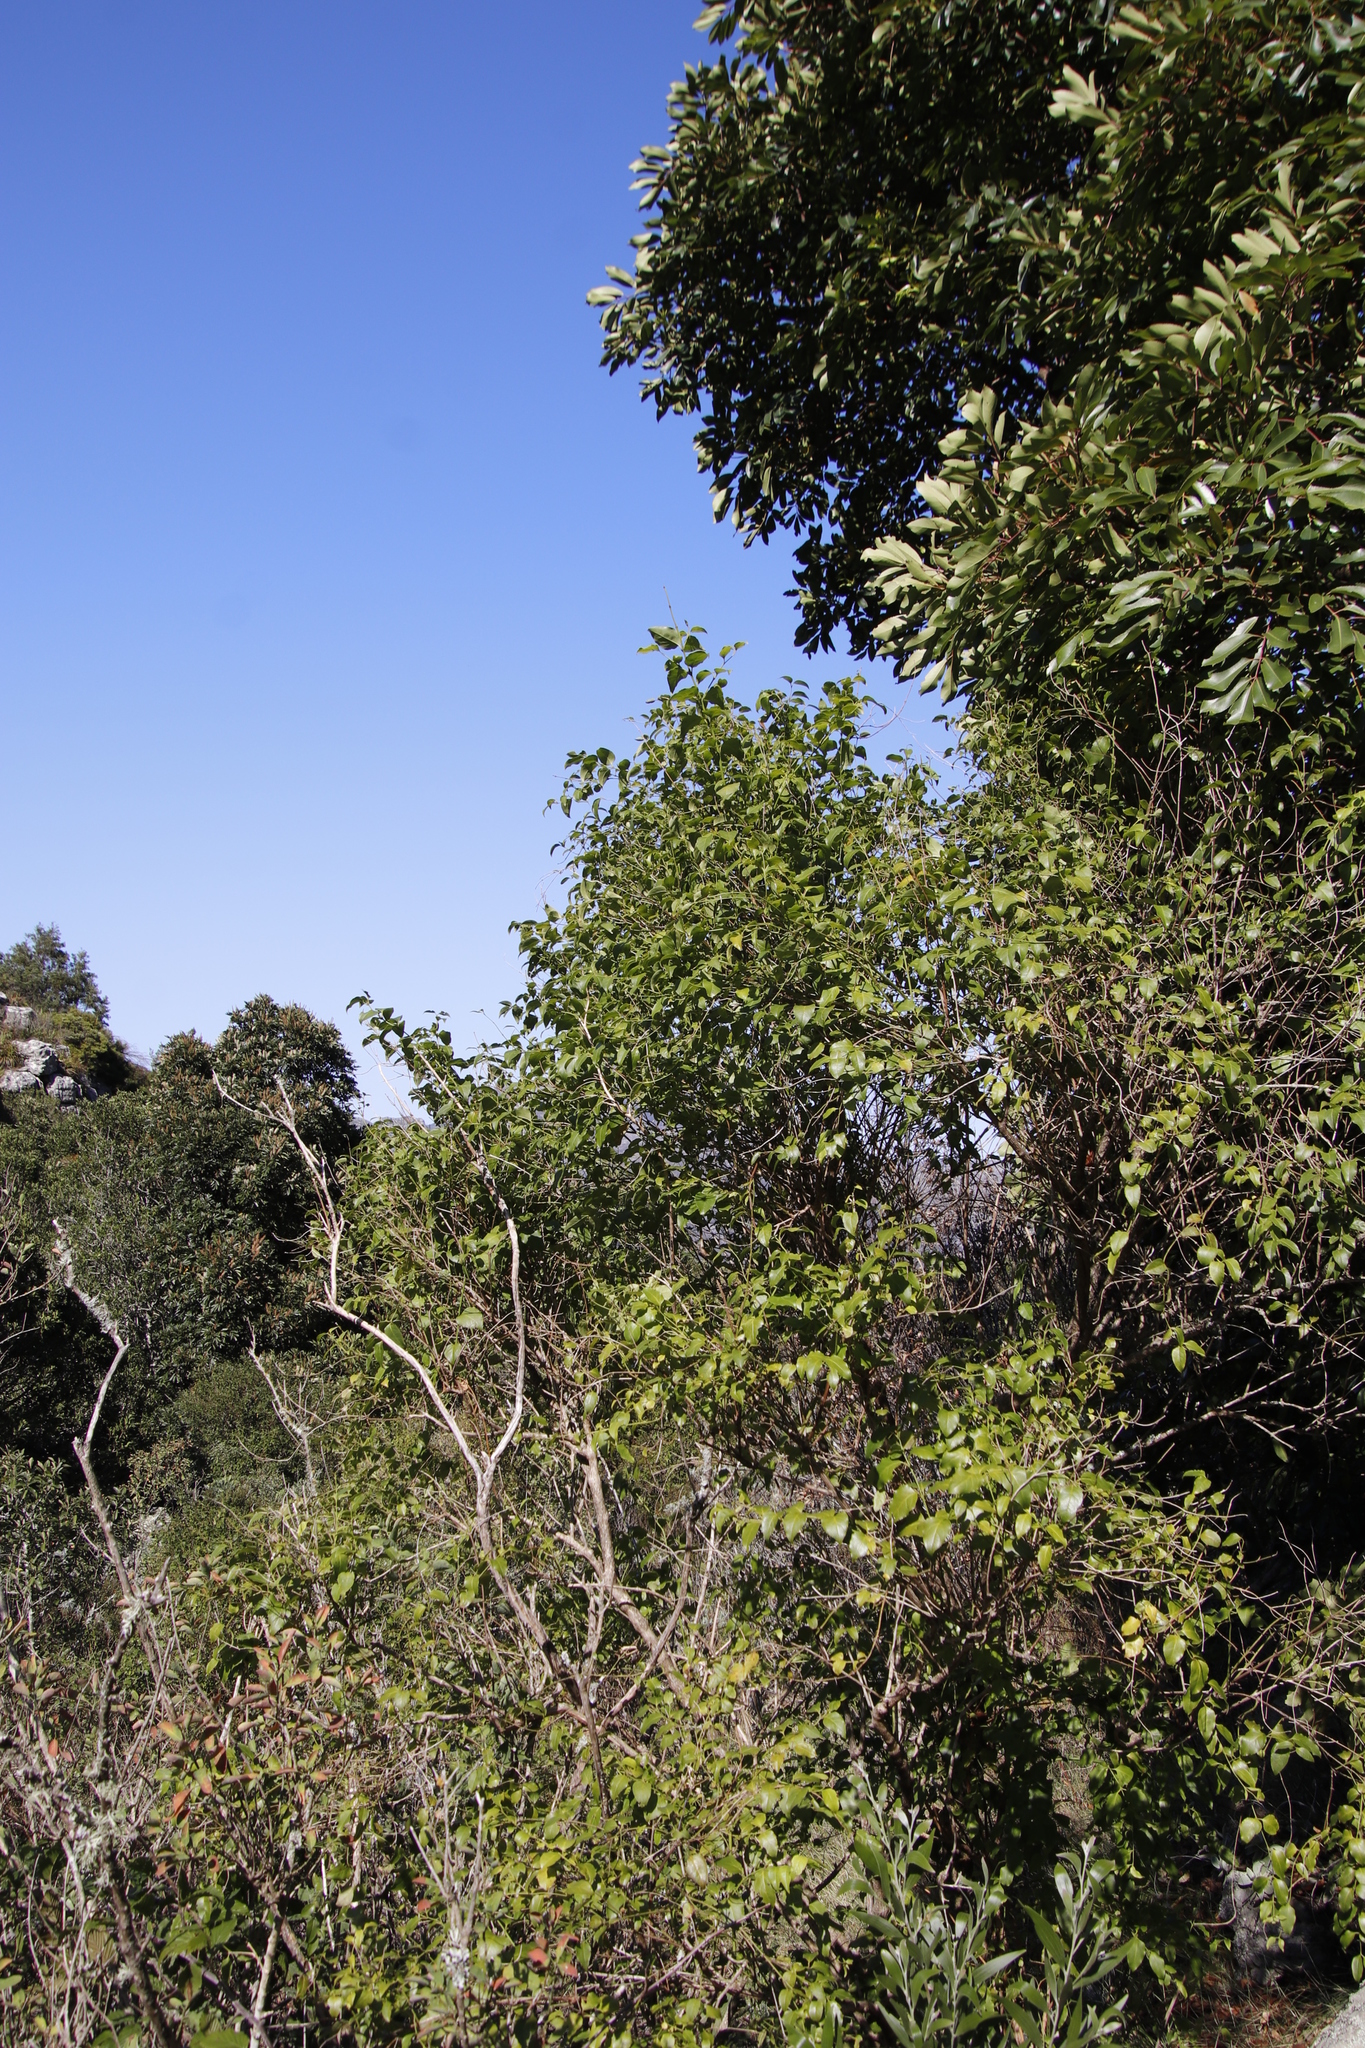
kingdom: Plantae
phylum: Tracheophyta
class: Magnoliopsida
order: Lamiales
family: Stilbaceae
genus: Halleria
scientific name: Halleria lucida
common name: Tree fuschia
